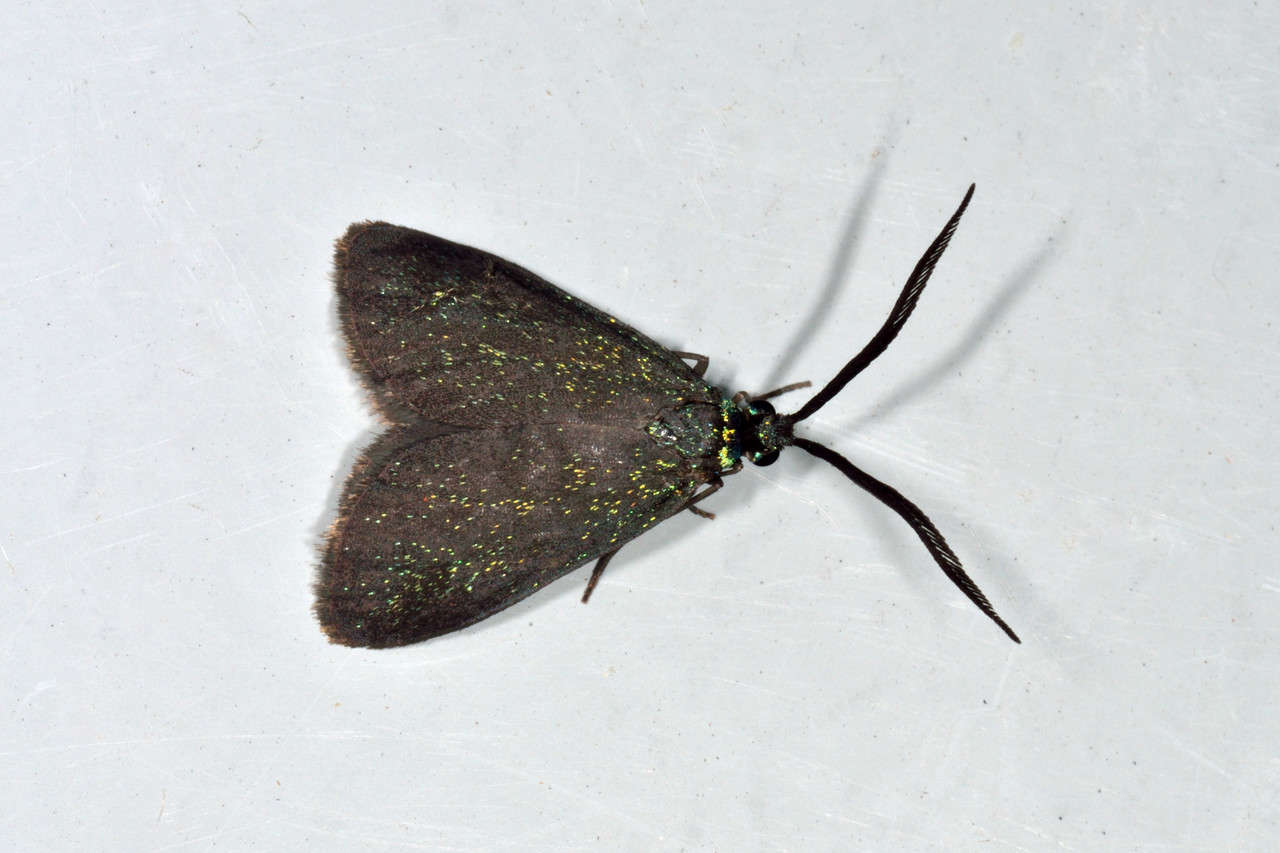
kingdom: Animalia
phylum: Arthropoda
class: Insecta
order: Lepidoptera
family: Zygaenidae
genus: Pollanisus
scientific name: Pollanisus lithopastus
